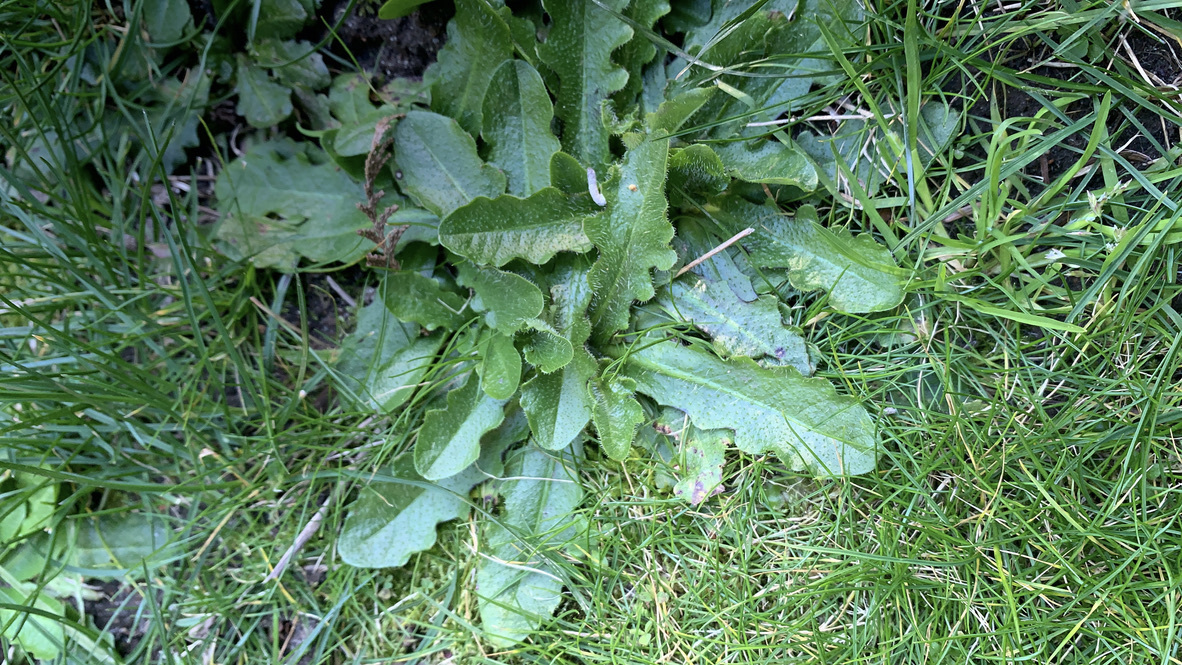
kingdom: Plantae
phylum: Tracheophyta
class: Magnoliopsida
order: Asterales
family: Asteraceae
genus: Hypochaeris
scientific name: Hypochaeris radicata
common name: Flatweed
